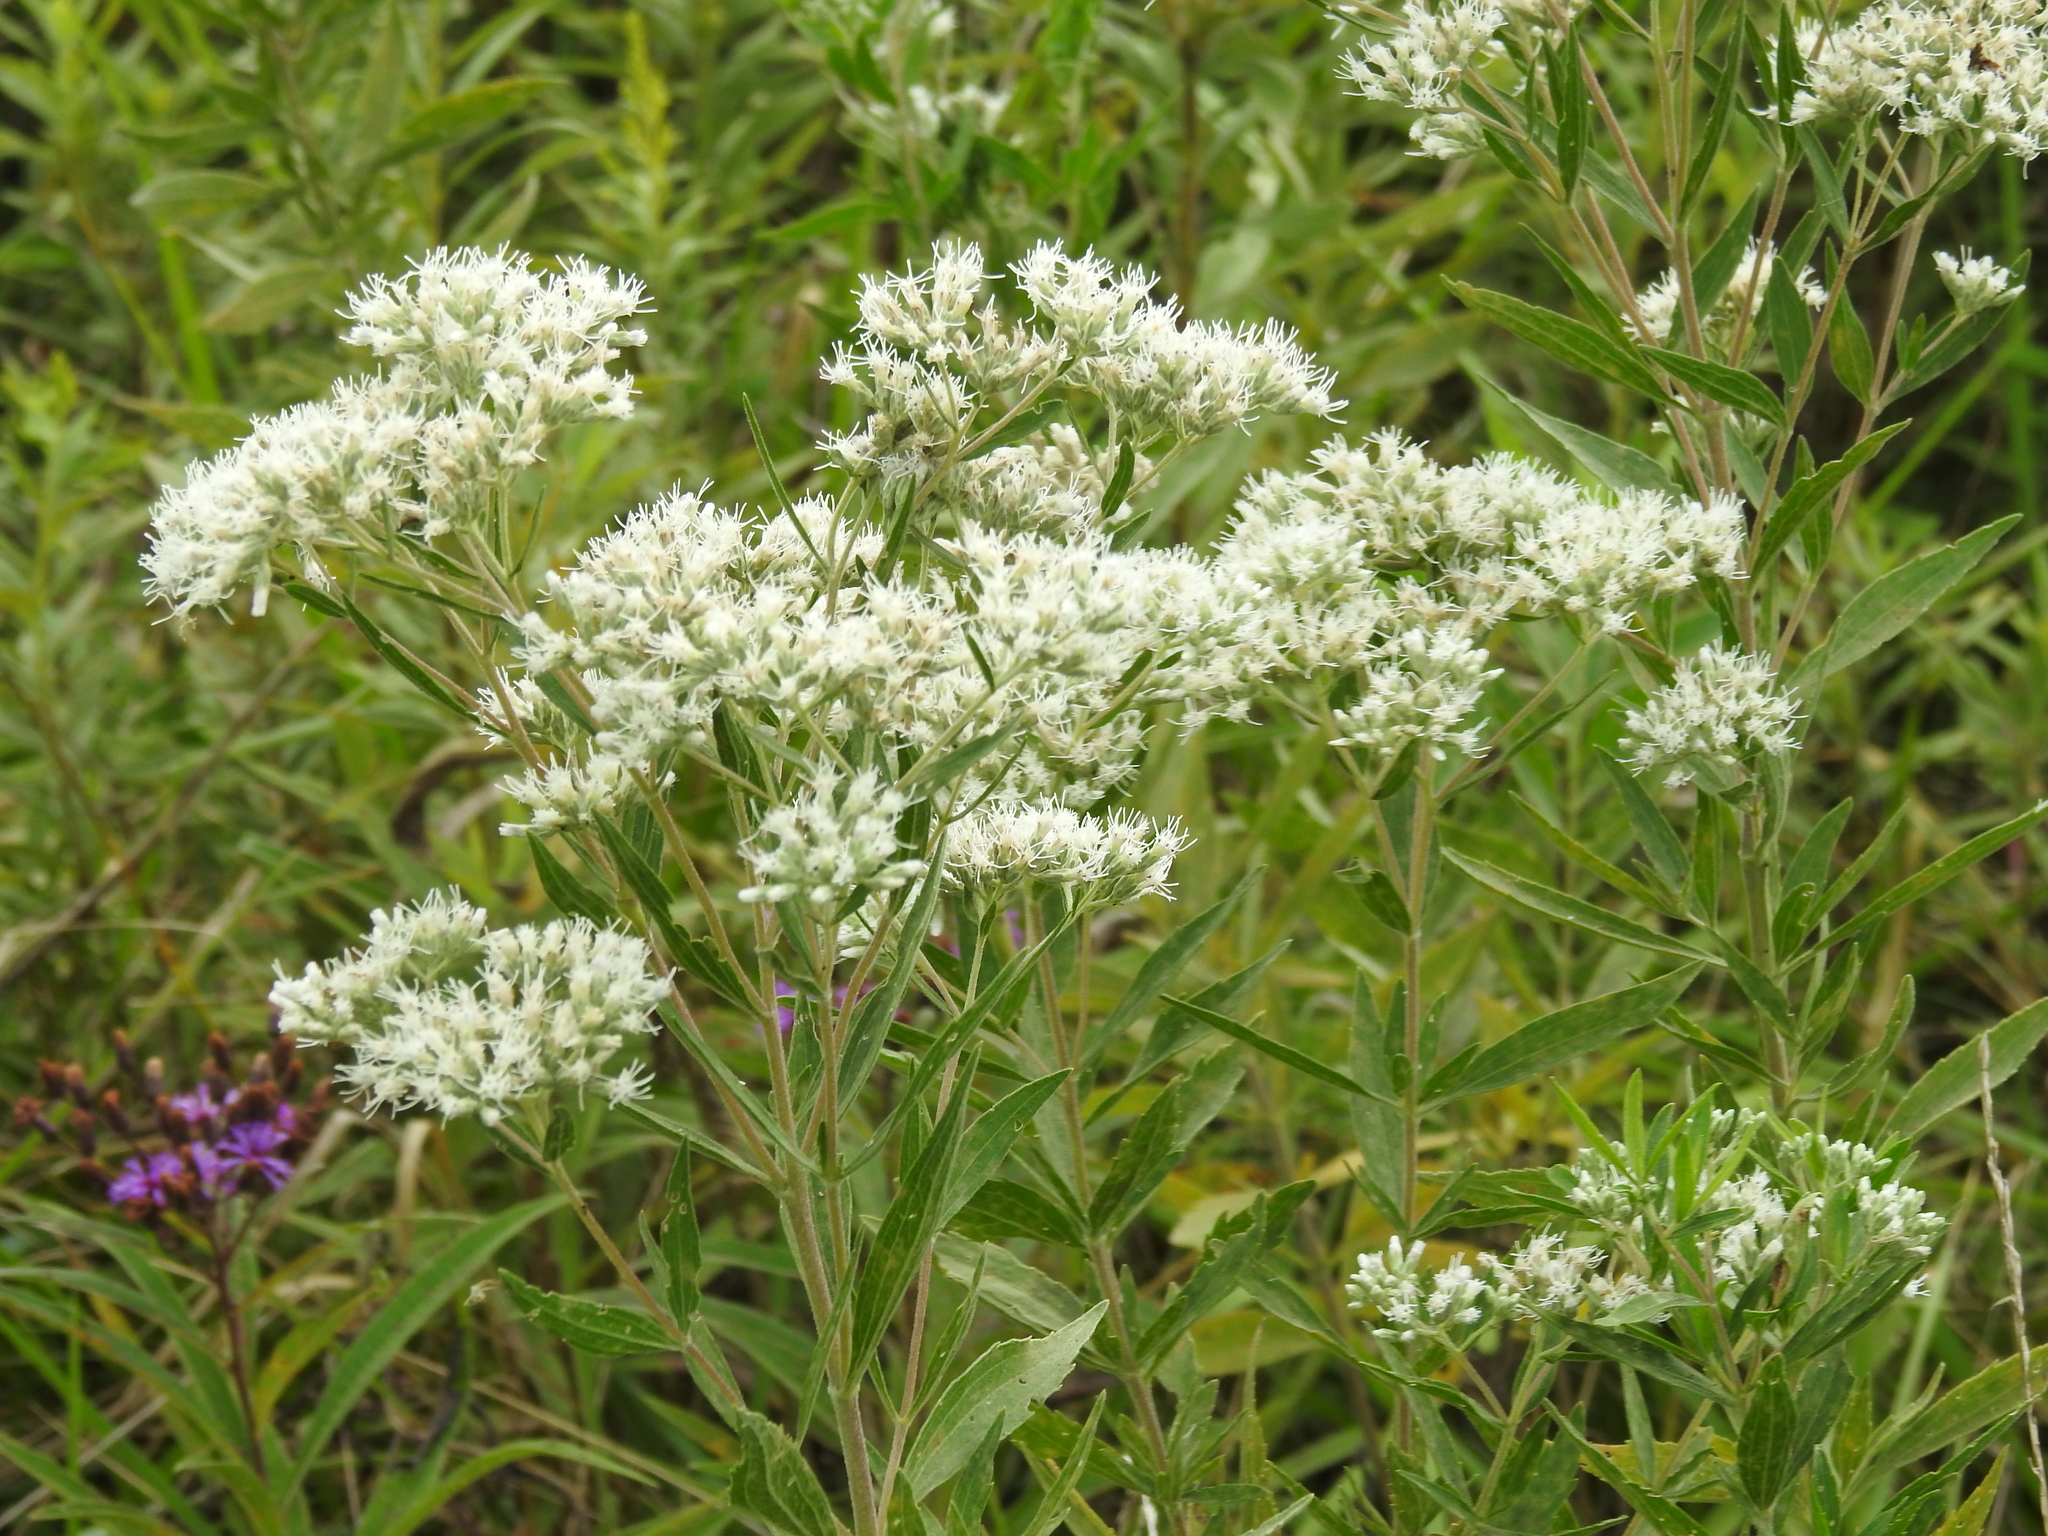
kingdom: Plantae
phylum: Tracheophyta
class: Magnoliopsida
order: Asterales
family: Asteraceae
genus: Eupatorium
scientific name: Eupatorium altissimum
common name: Tall thoroughwort
